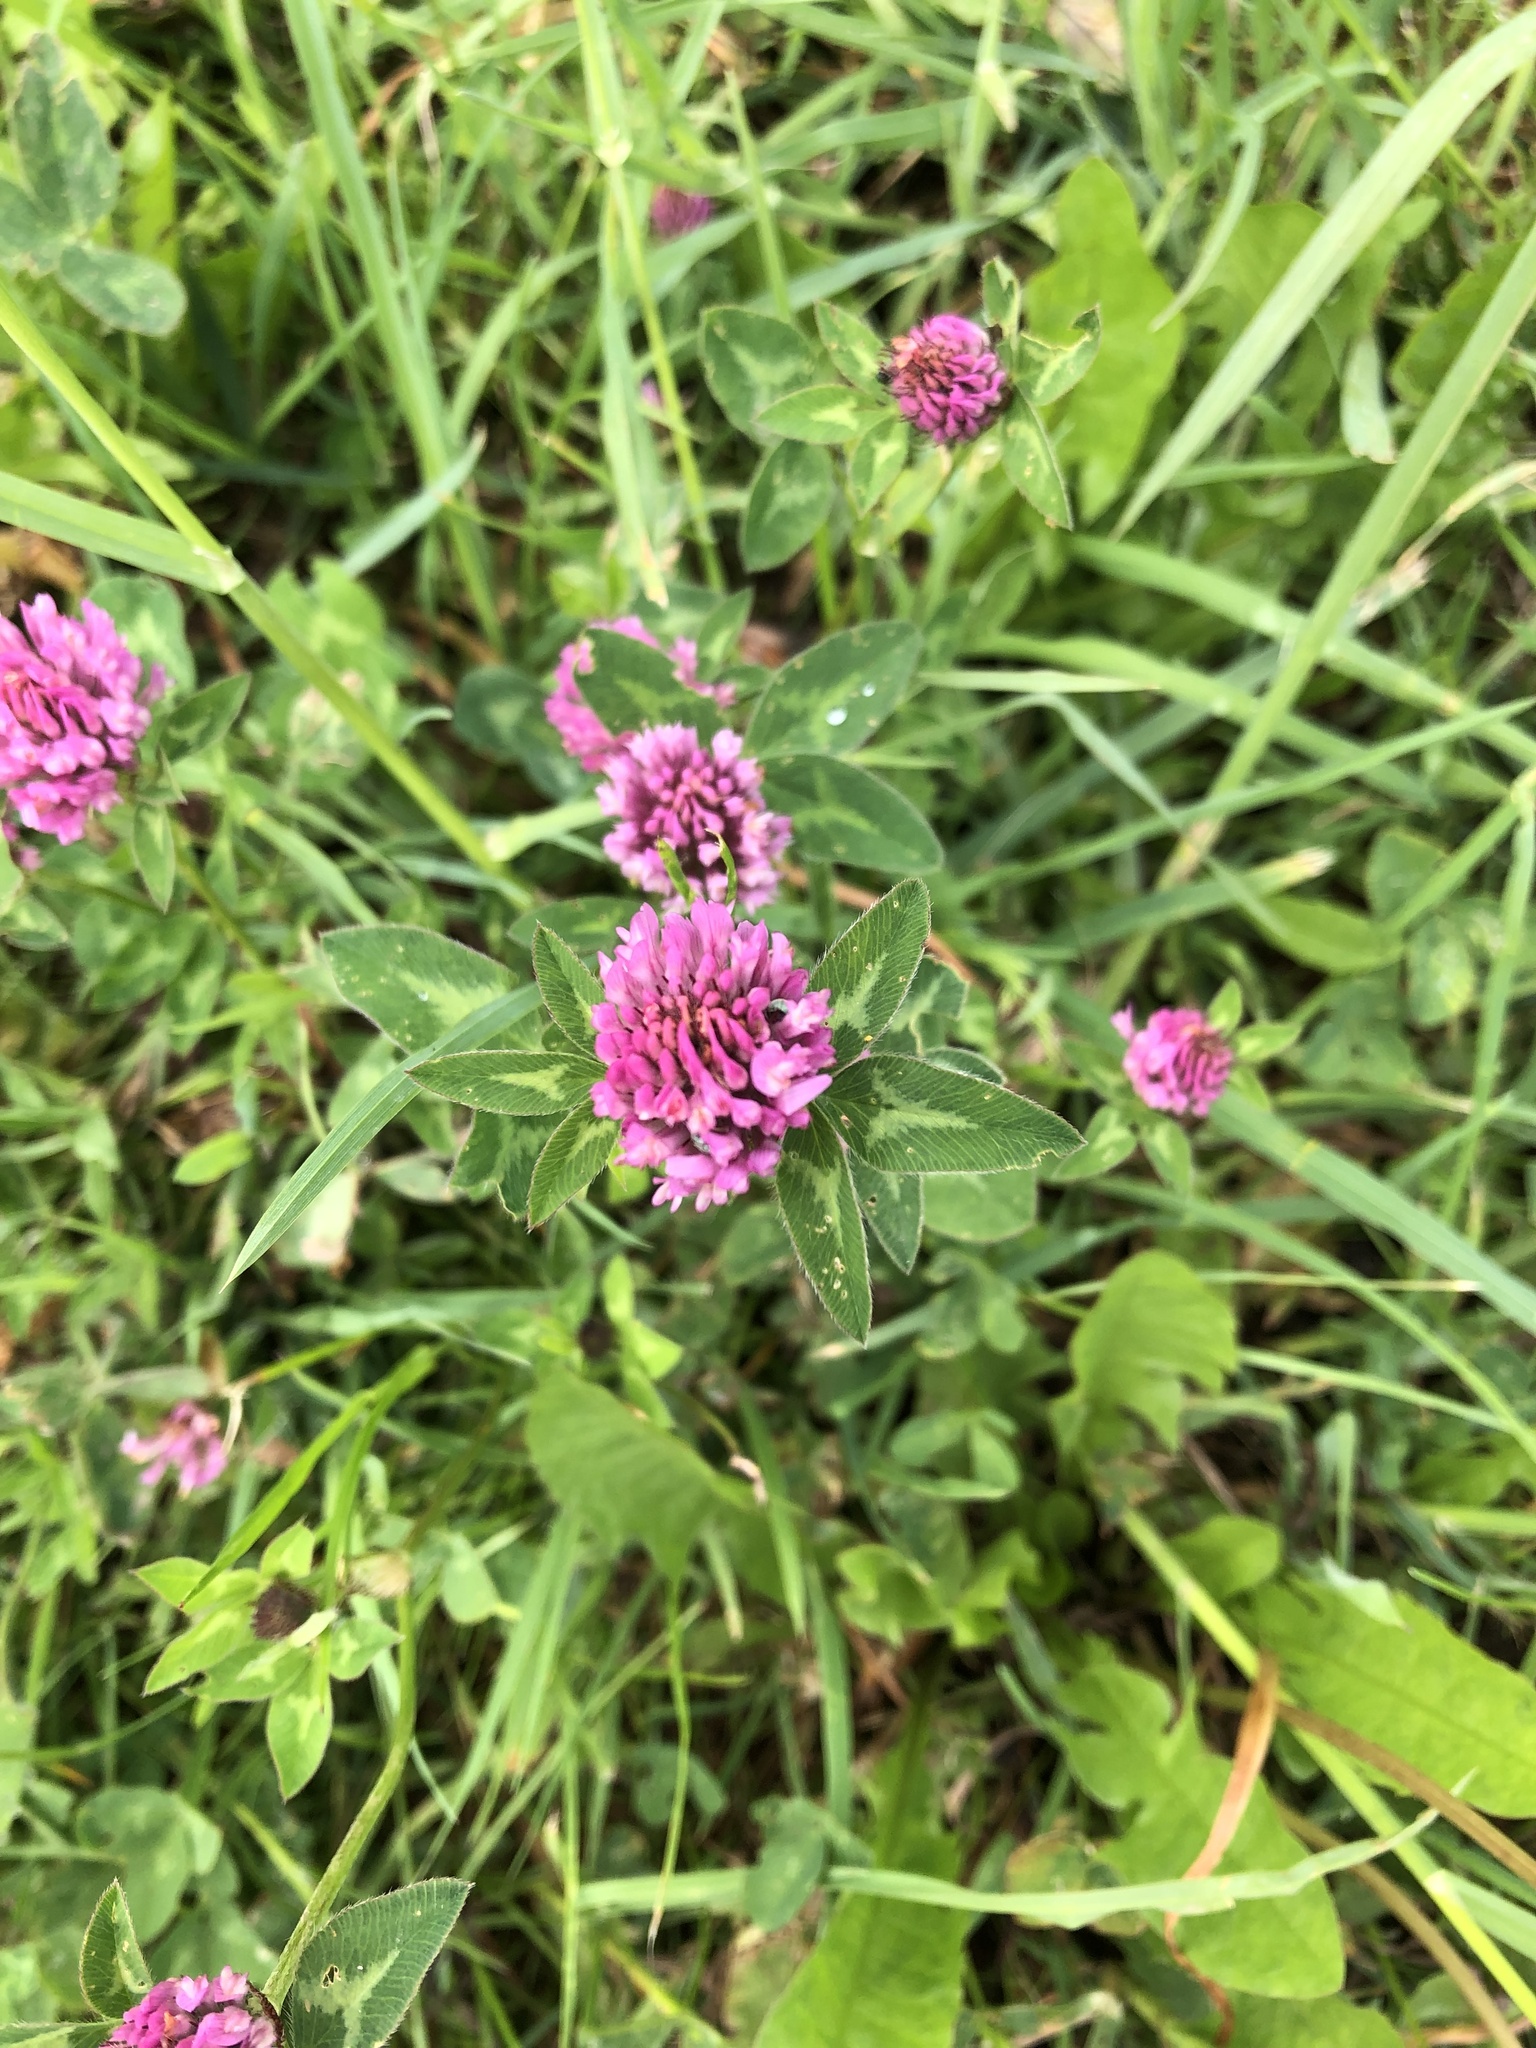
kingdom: Plantae
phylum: Tracheophyta
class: Magnoliopsida
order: Fabales
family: Fabaceae
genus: Trifolium
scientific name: Trifolium pratense
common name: Red clover
